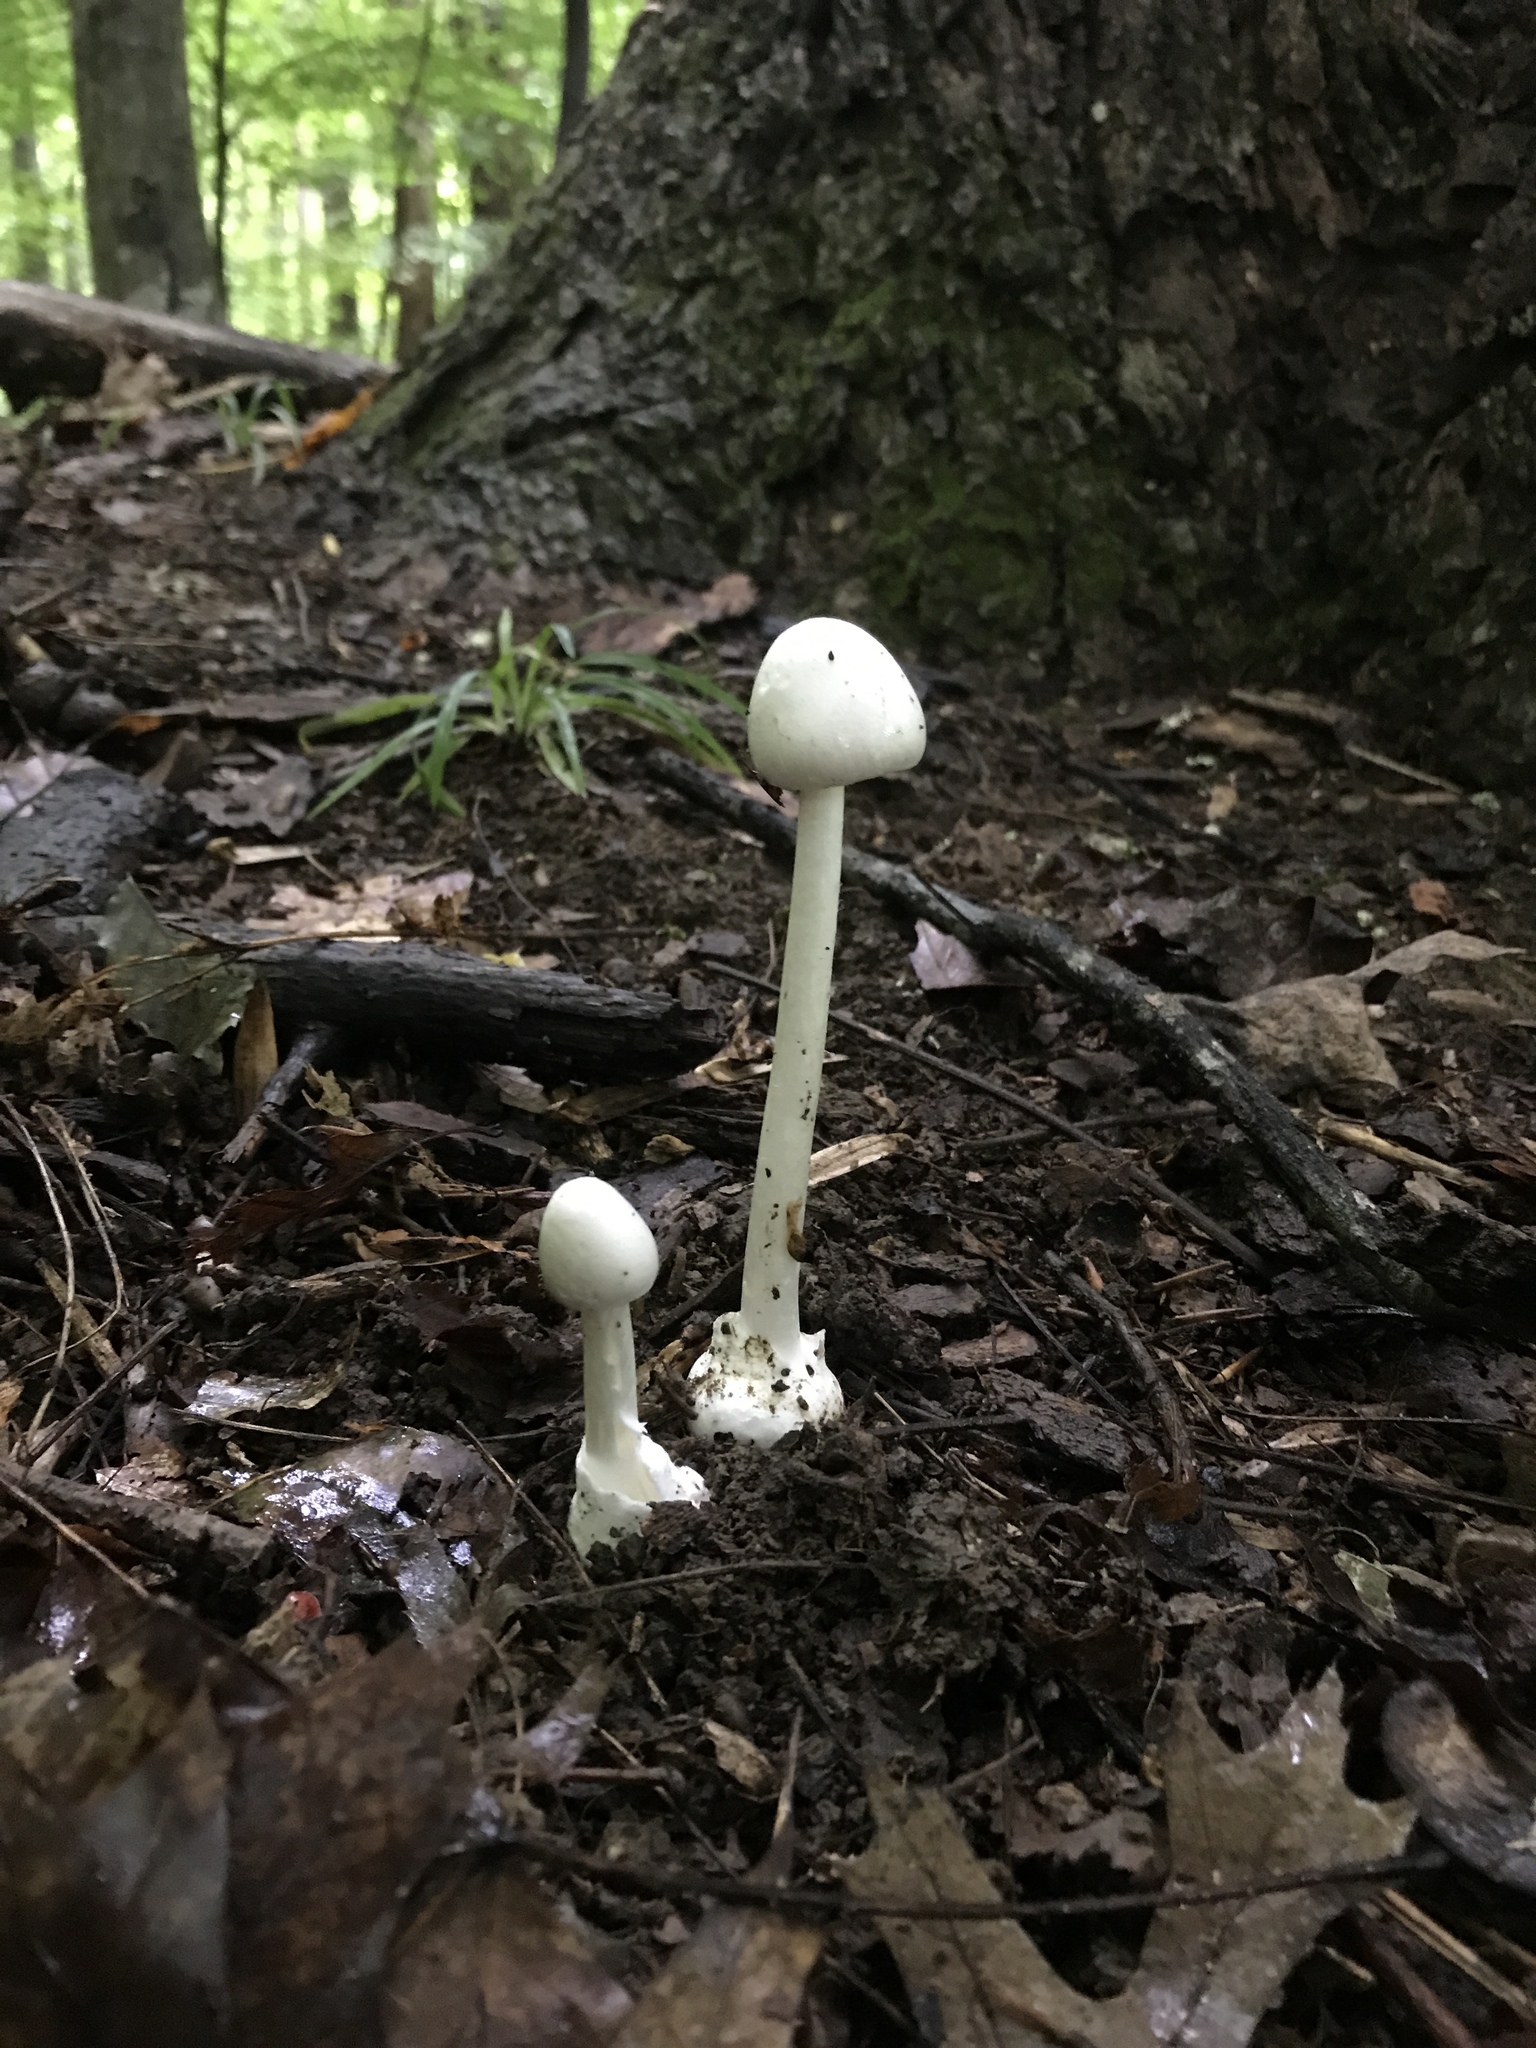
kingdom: Fungi
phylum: Basidiomycota
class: Agaricomycetes
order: Agaricales
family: Amanitaceae
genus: Amanita
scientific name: Amanita bisporigera
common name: Eastern north american destroying angel
